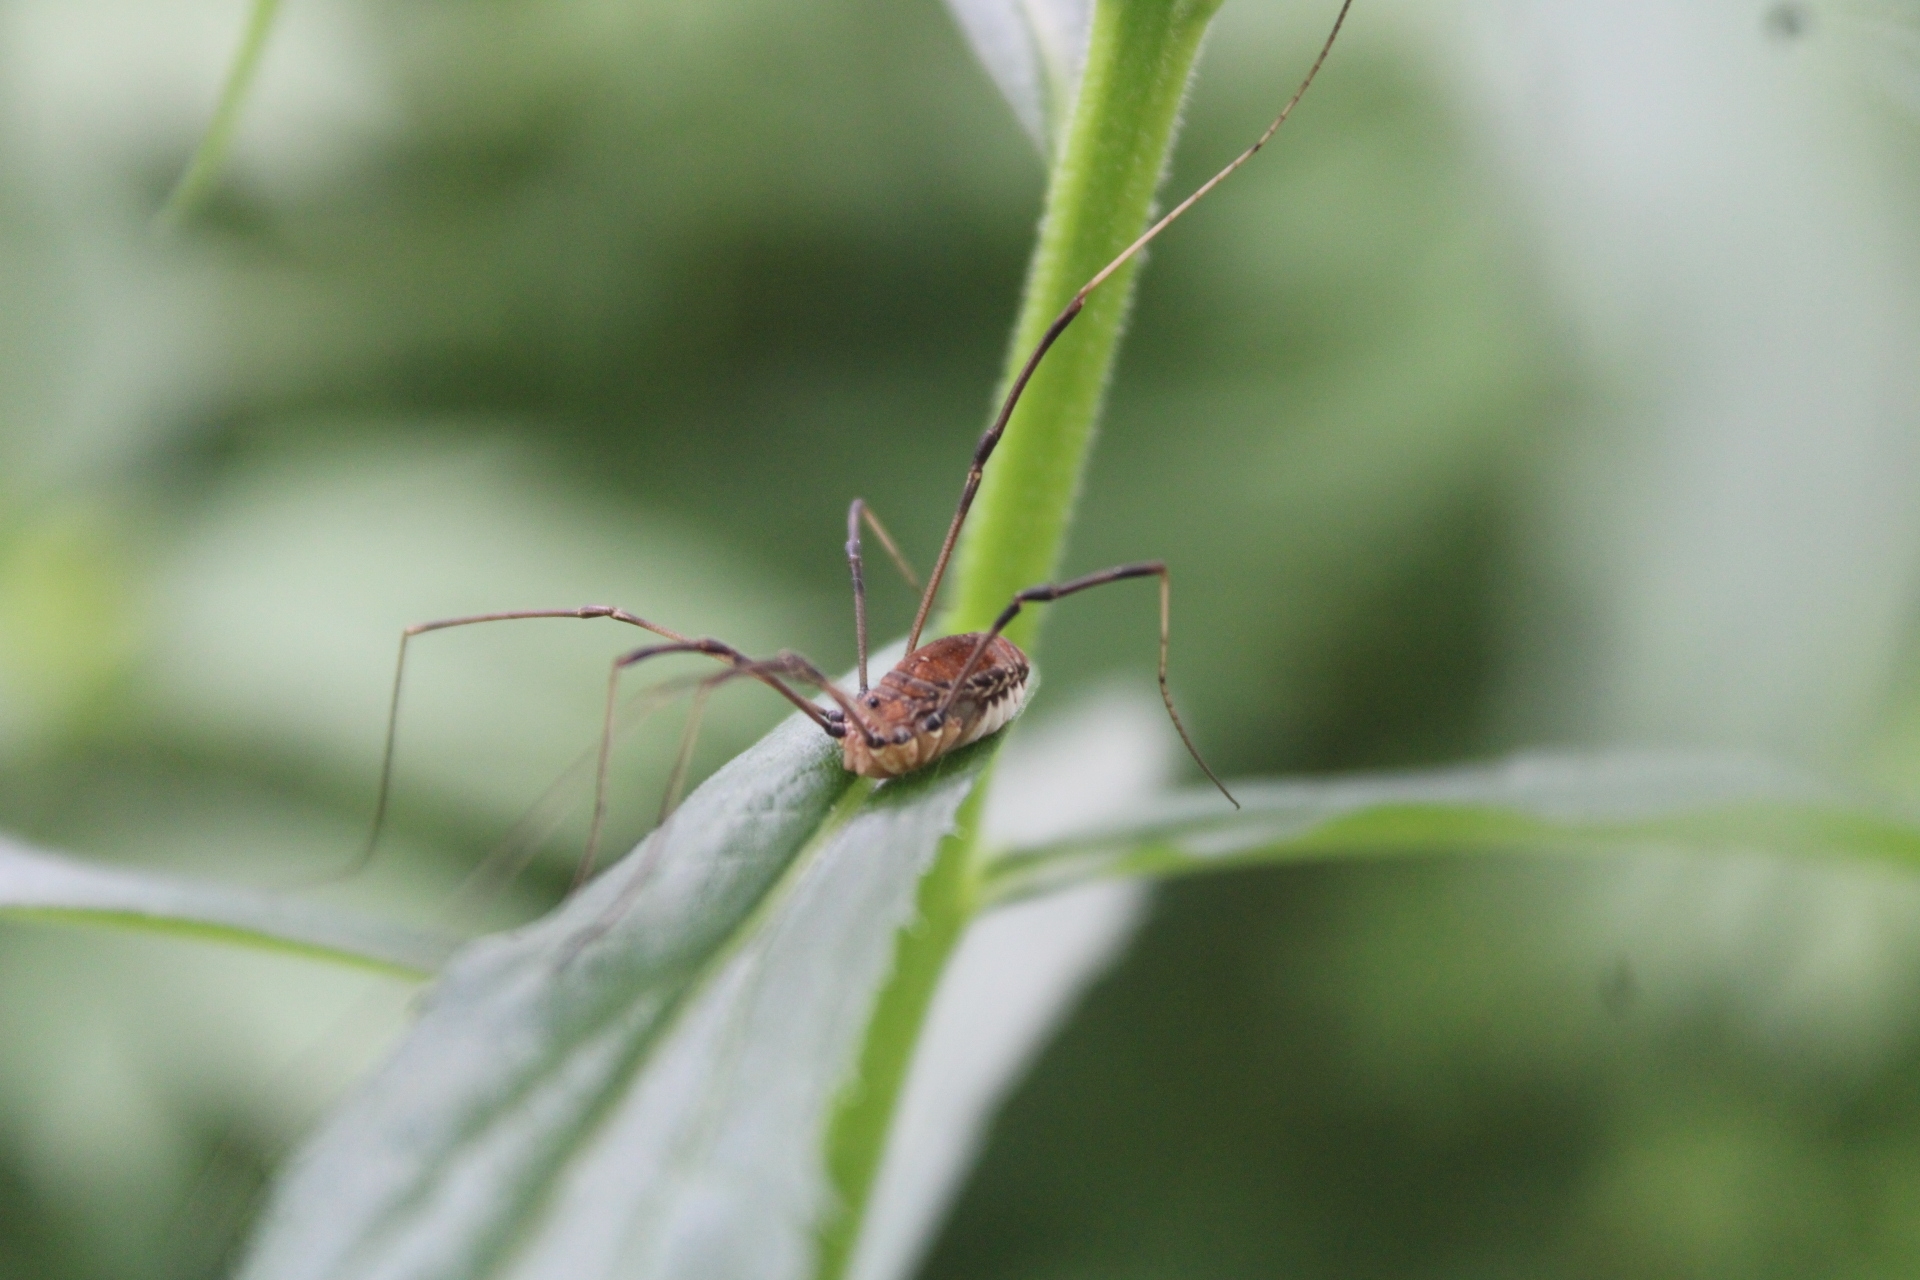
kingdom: Animalia
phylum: Arthropoda
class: Arachnida
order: Opiliones
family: Sclerosomatidae
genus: Leiobunum
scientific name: Leiobunum verrucosum
